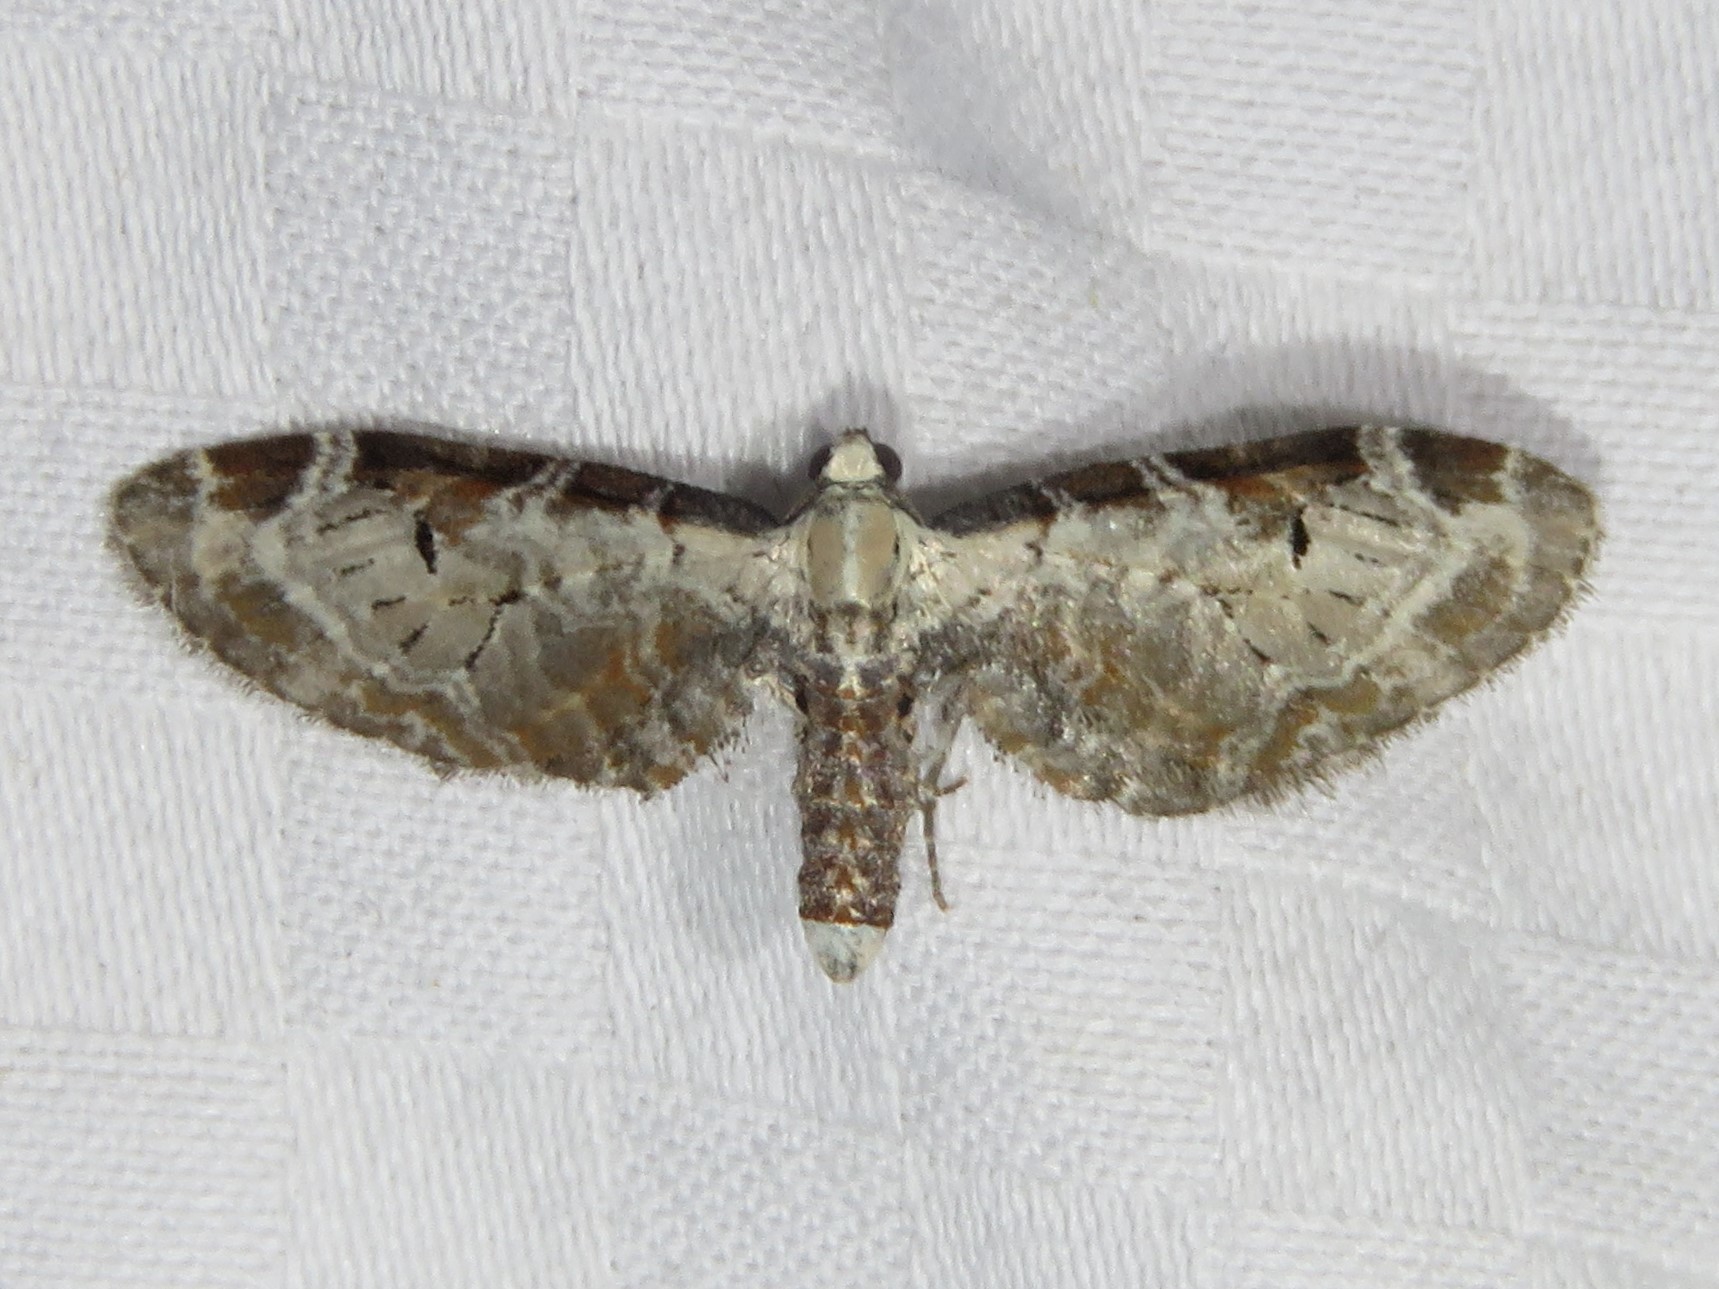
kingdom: Animalia
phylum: Arthropoda
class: Insecta
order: Lepidoptera
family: Geometridae
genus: Eupithecia
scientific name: Eupithecia ravocostaliata
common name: Great varigated pug
